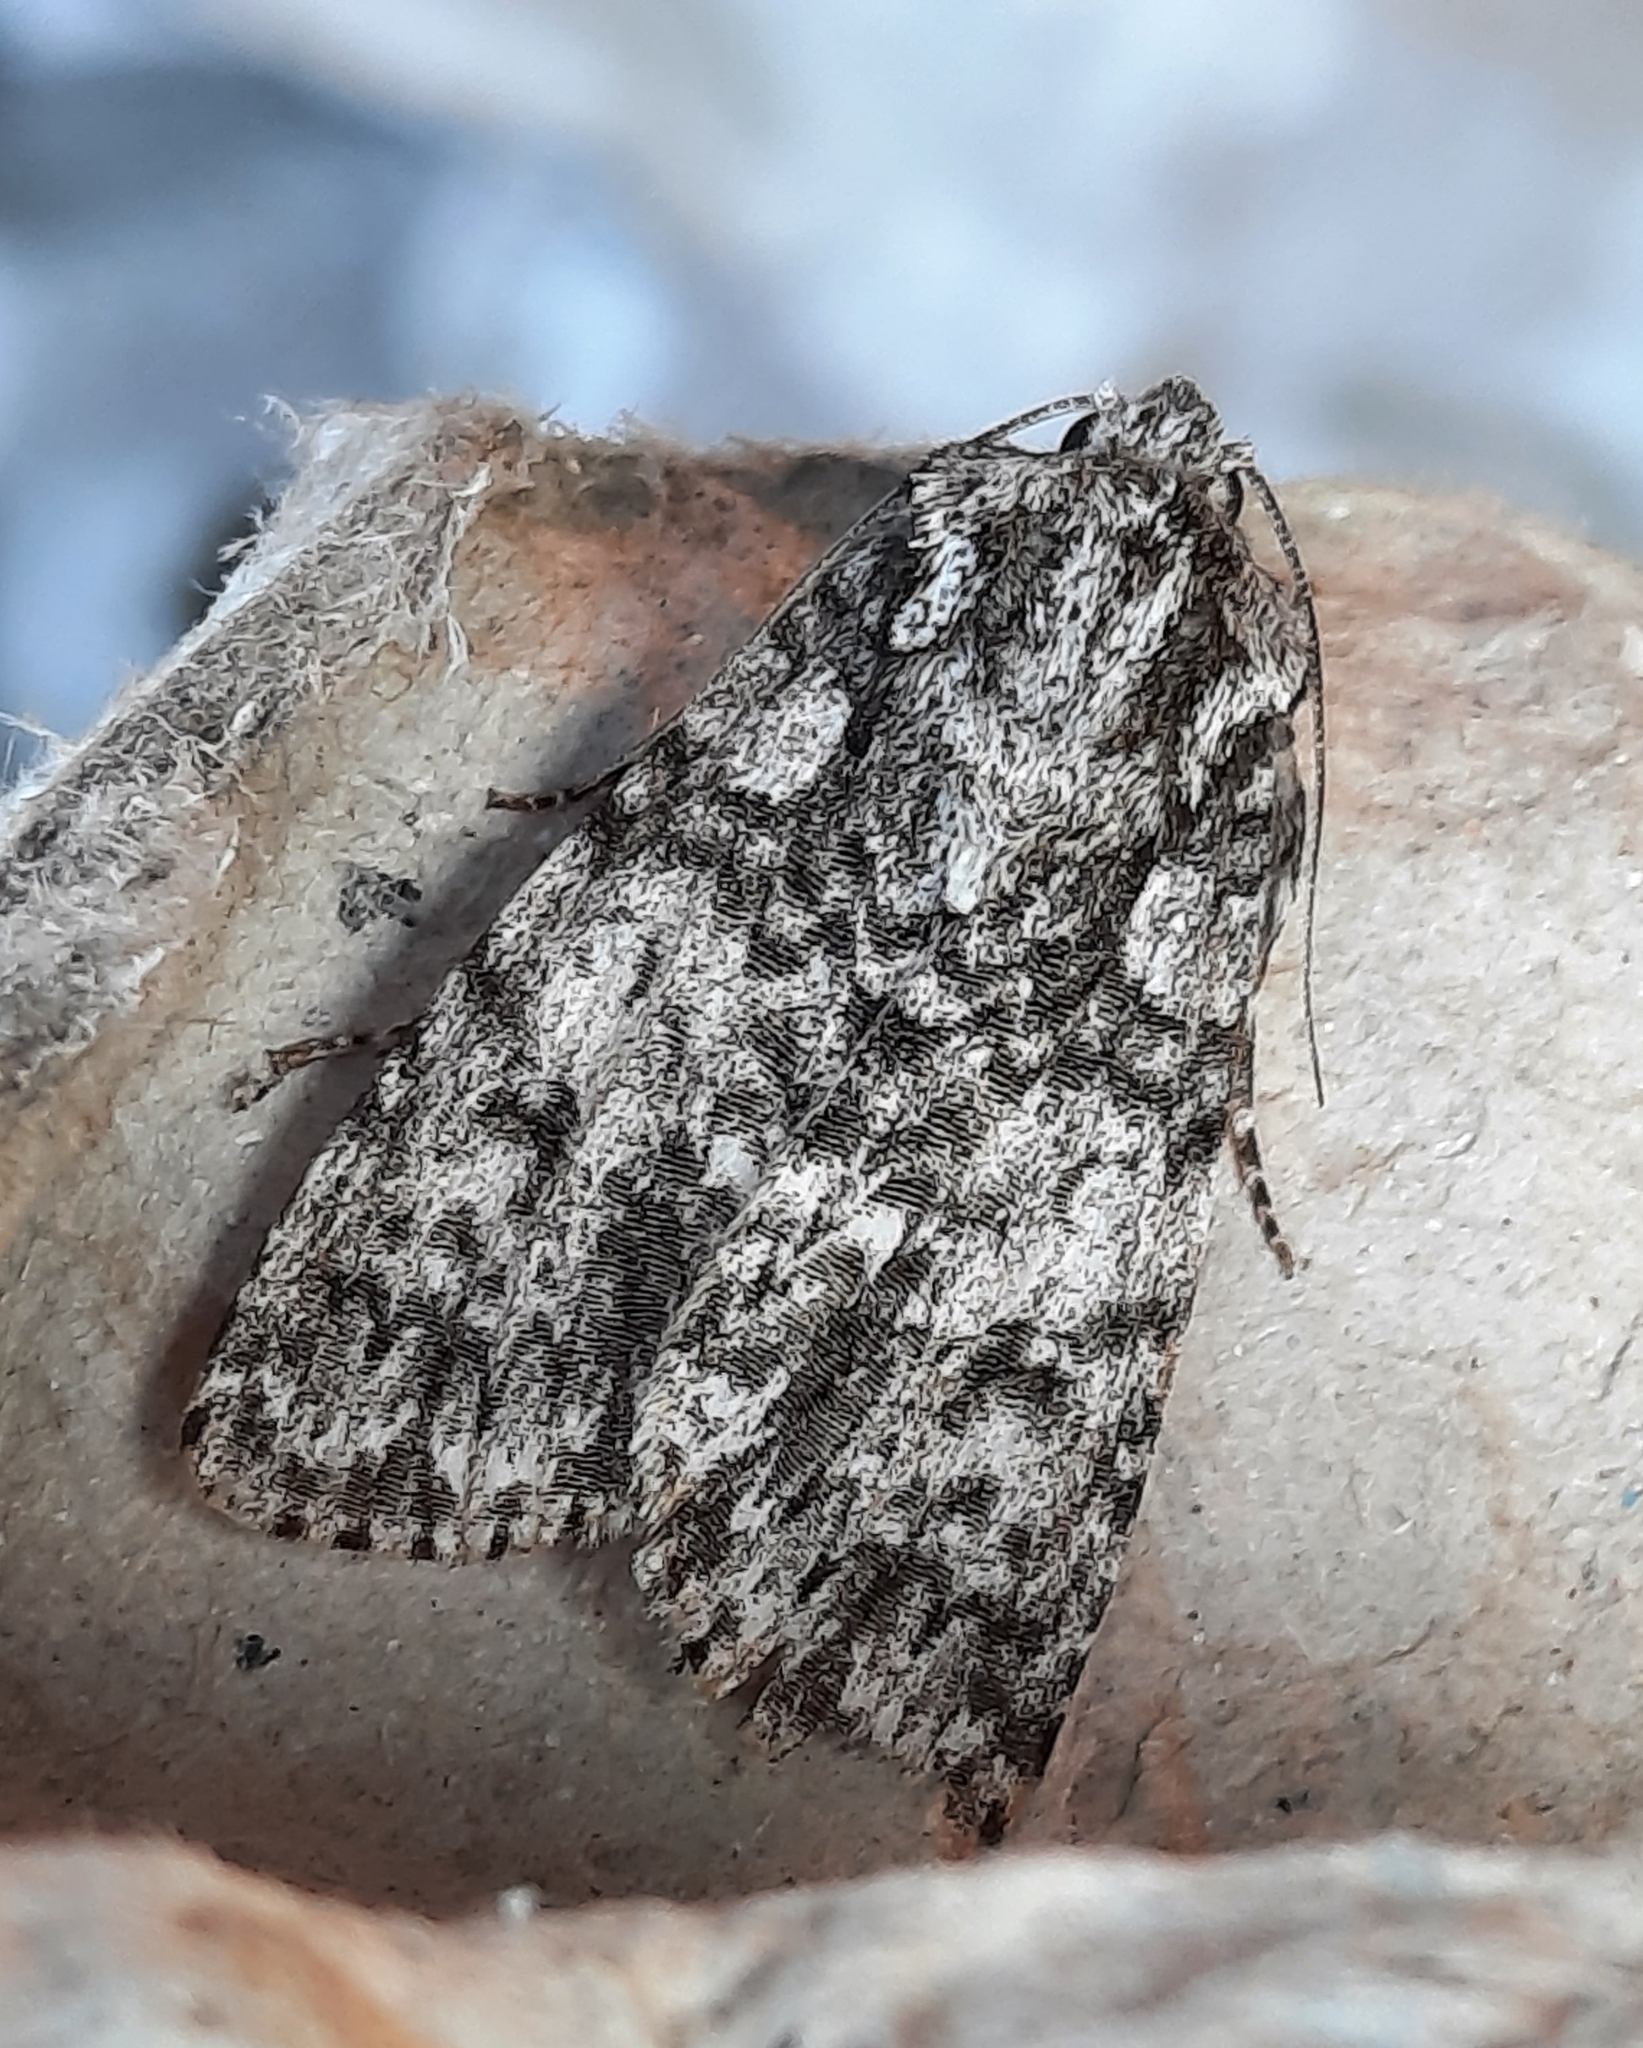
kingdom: Animalia
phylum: Arthropoda
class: Insecta
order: Lepidoptera
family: Noctuidae
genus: Acronicta
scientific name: Acronicta rumicis
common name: Knot grass
